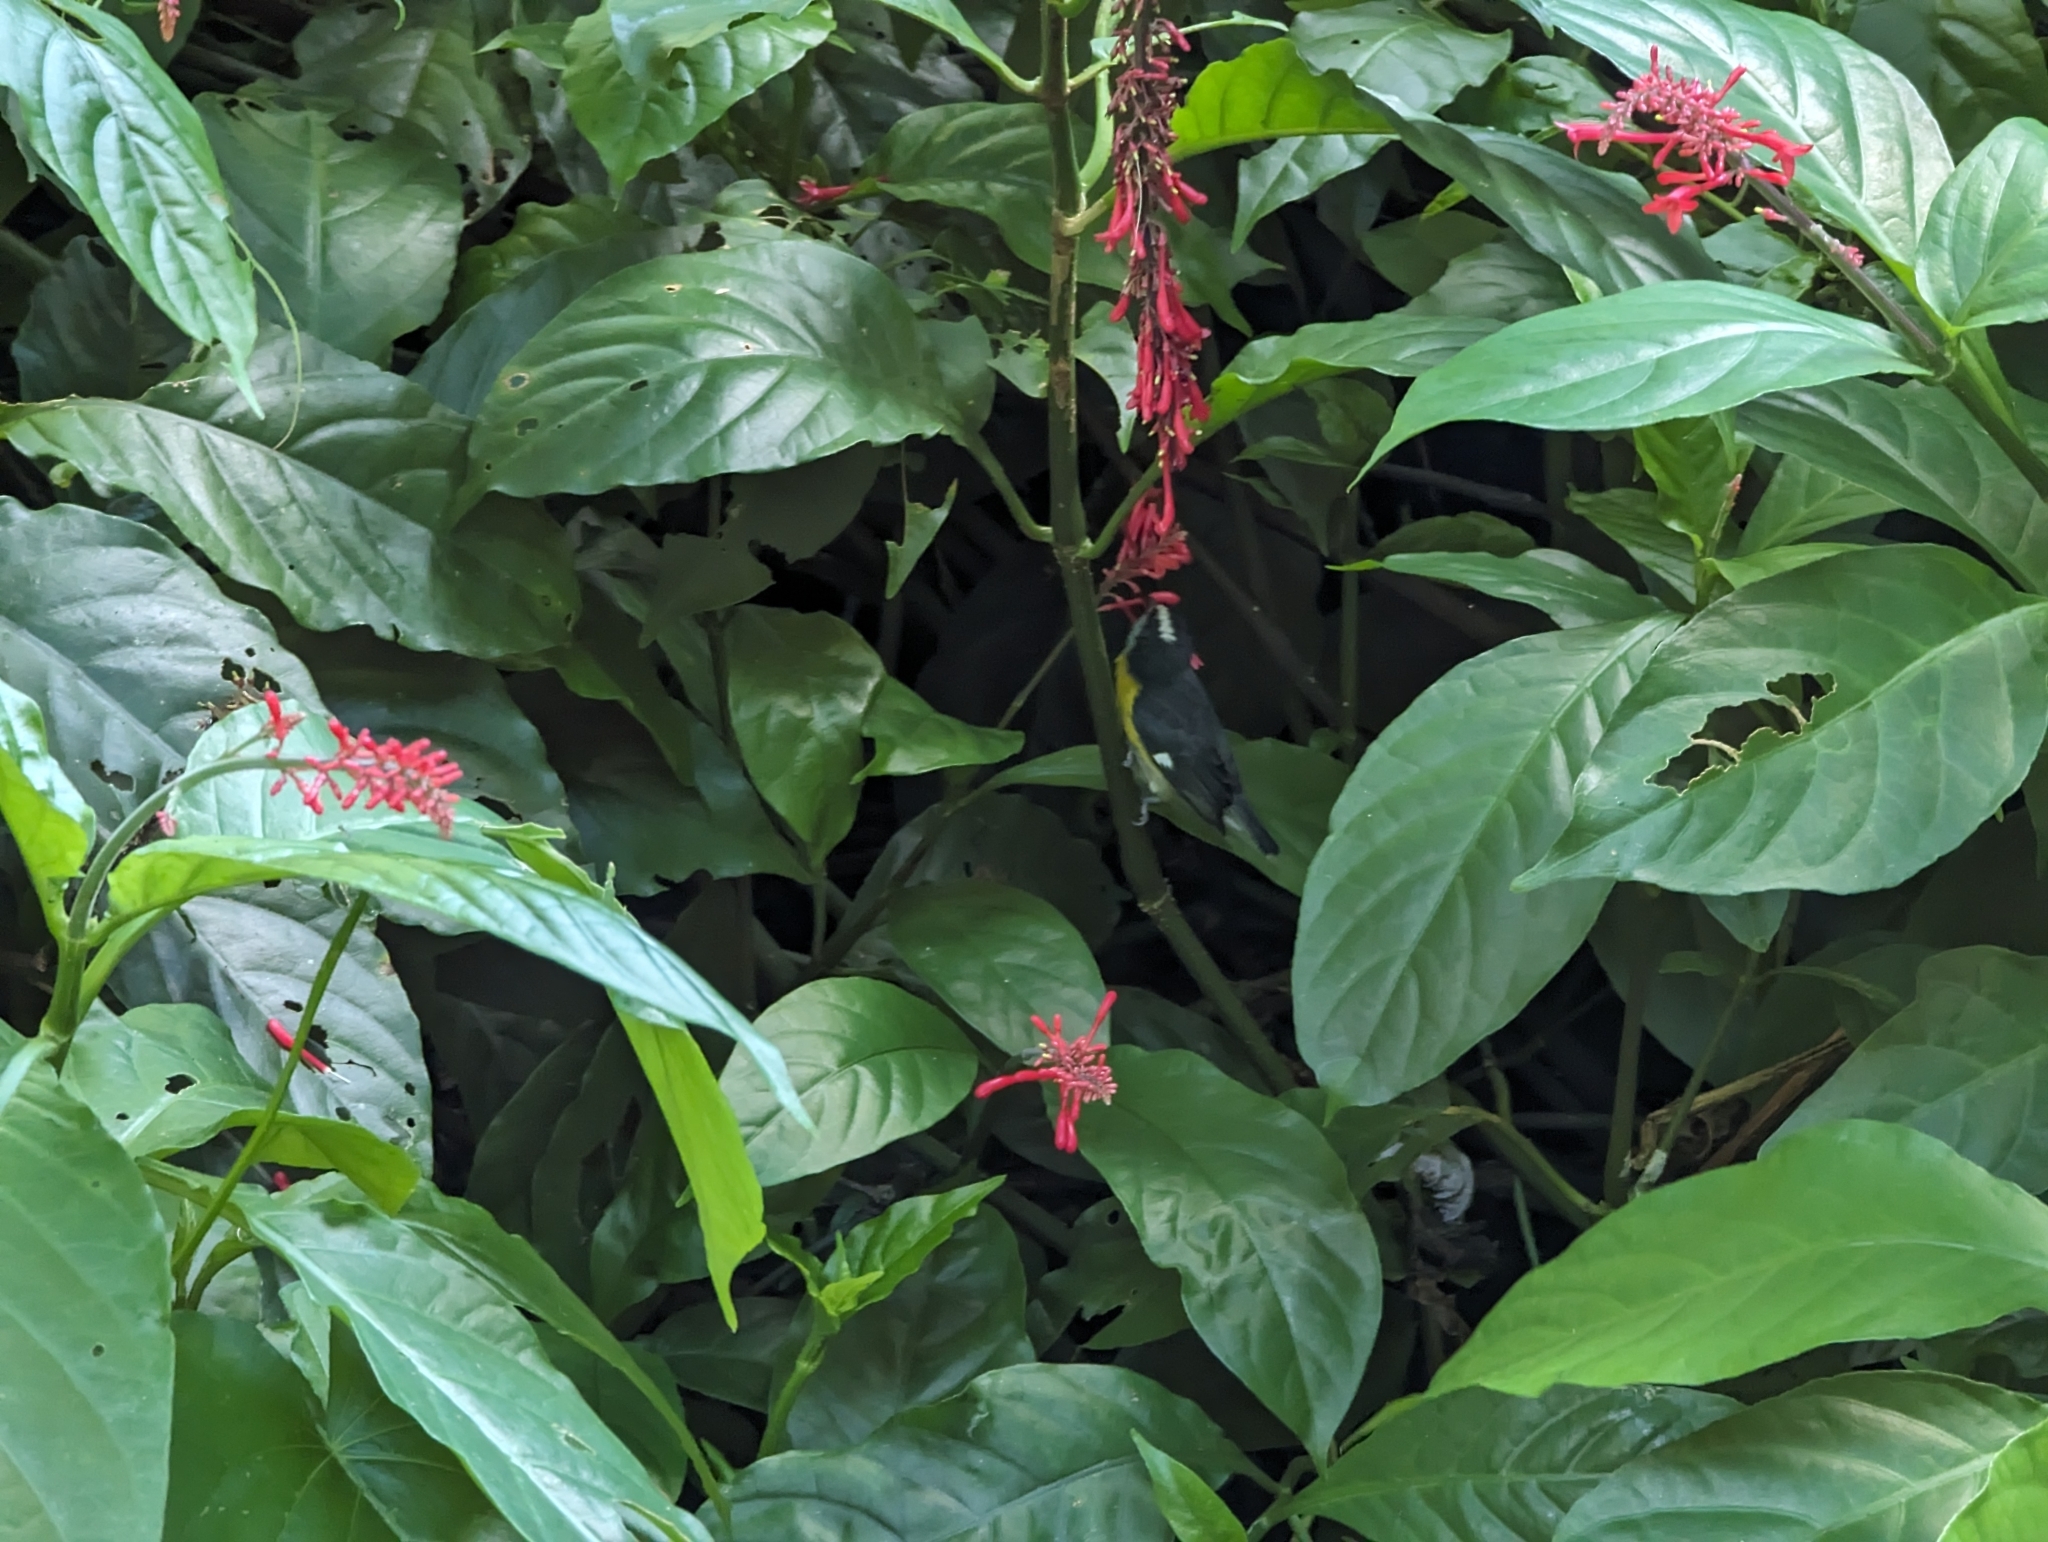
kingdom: Animalia
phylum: Chordata
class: Aves
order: Passeriformes
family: Thraupidae
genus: Coereba
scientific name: Coereba flaveola
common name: Bananaquit
